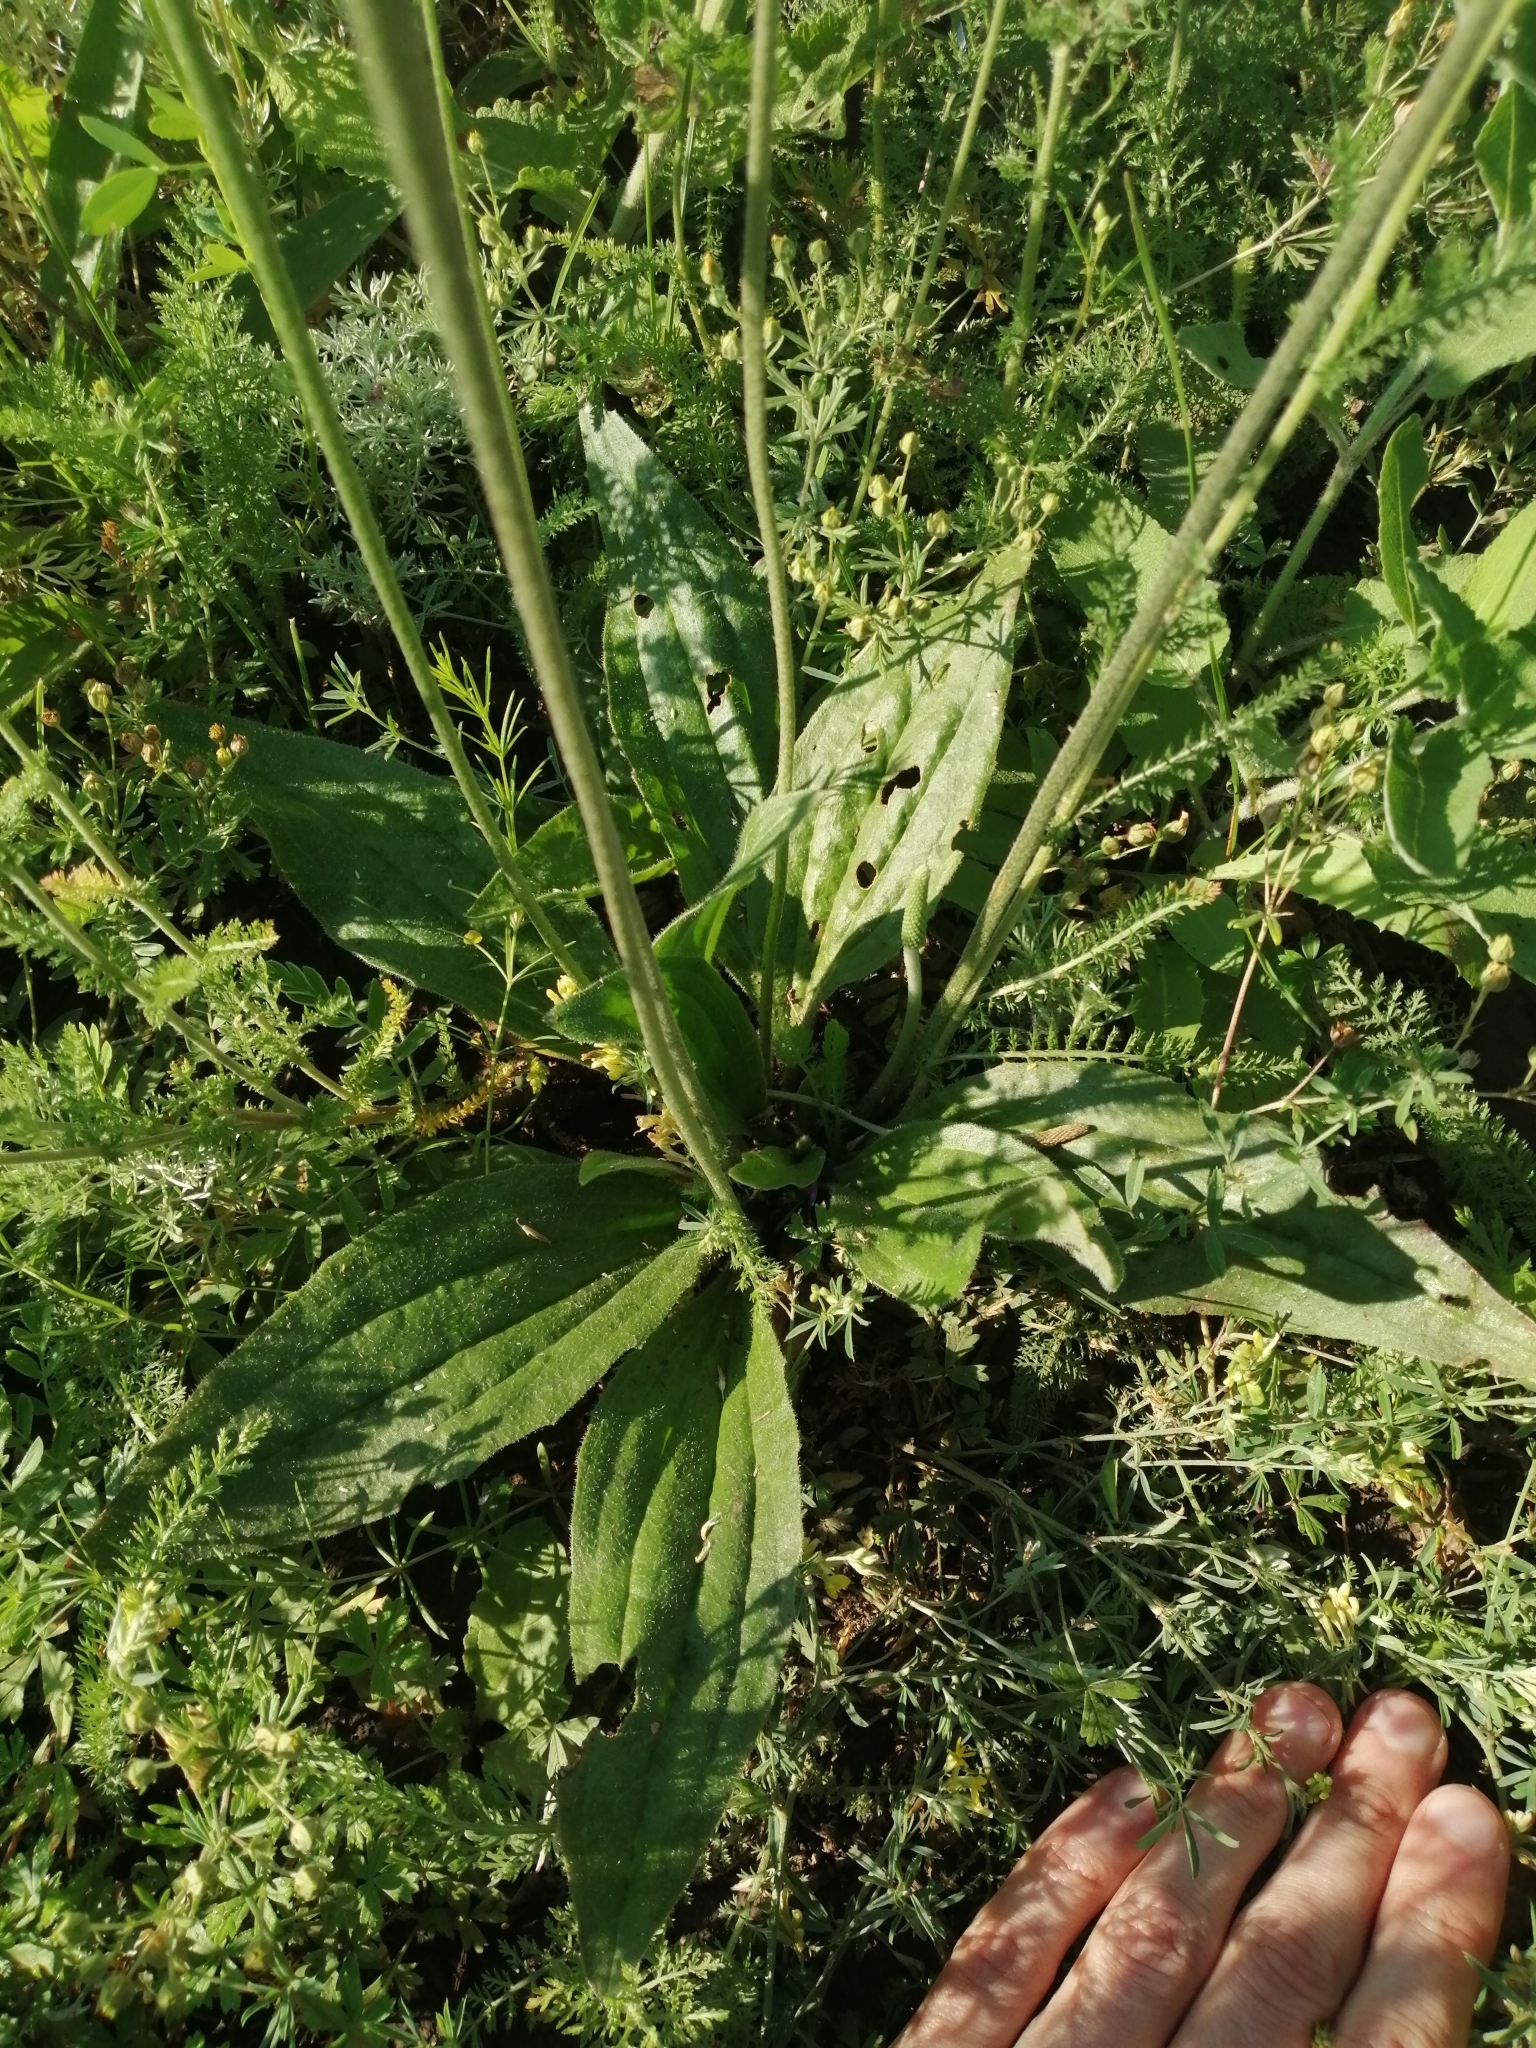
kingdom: Plantae
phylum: Tracheophyta
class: Magnoliopsida
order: Lamiales
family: Plantaginaceae
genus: Plantago
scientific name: Plantago media
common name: Hoary plantain
